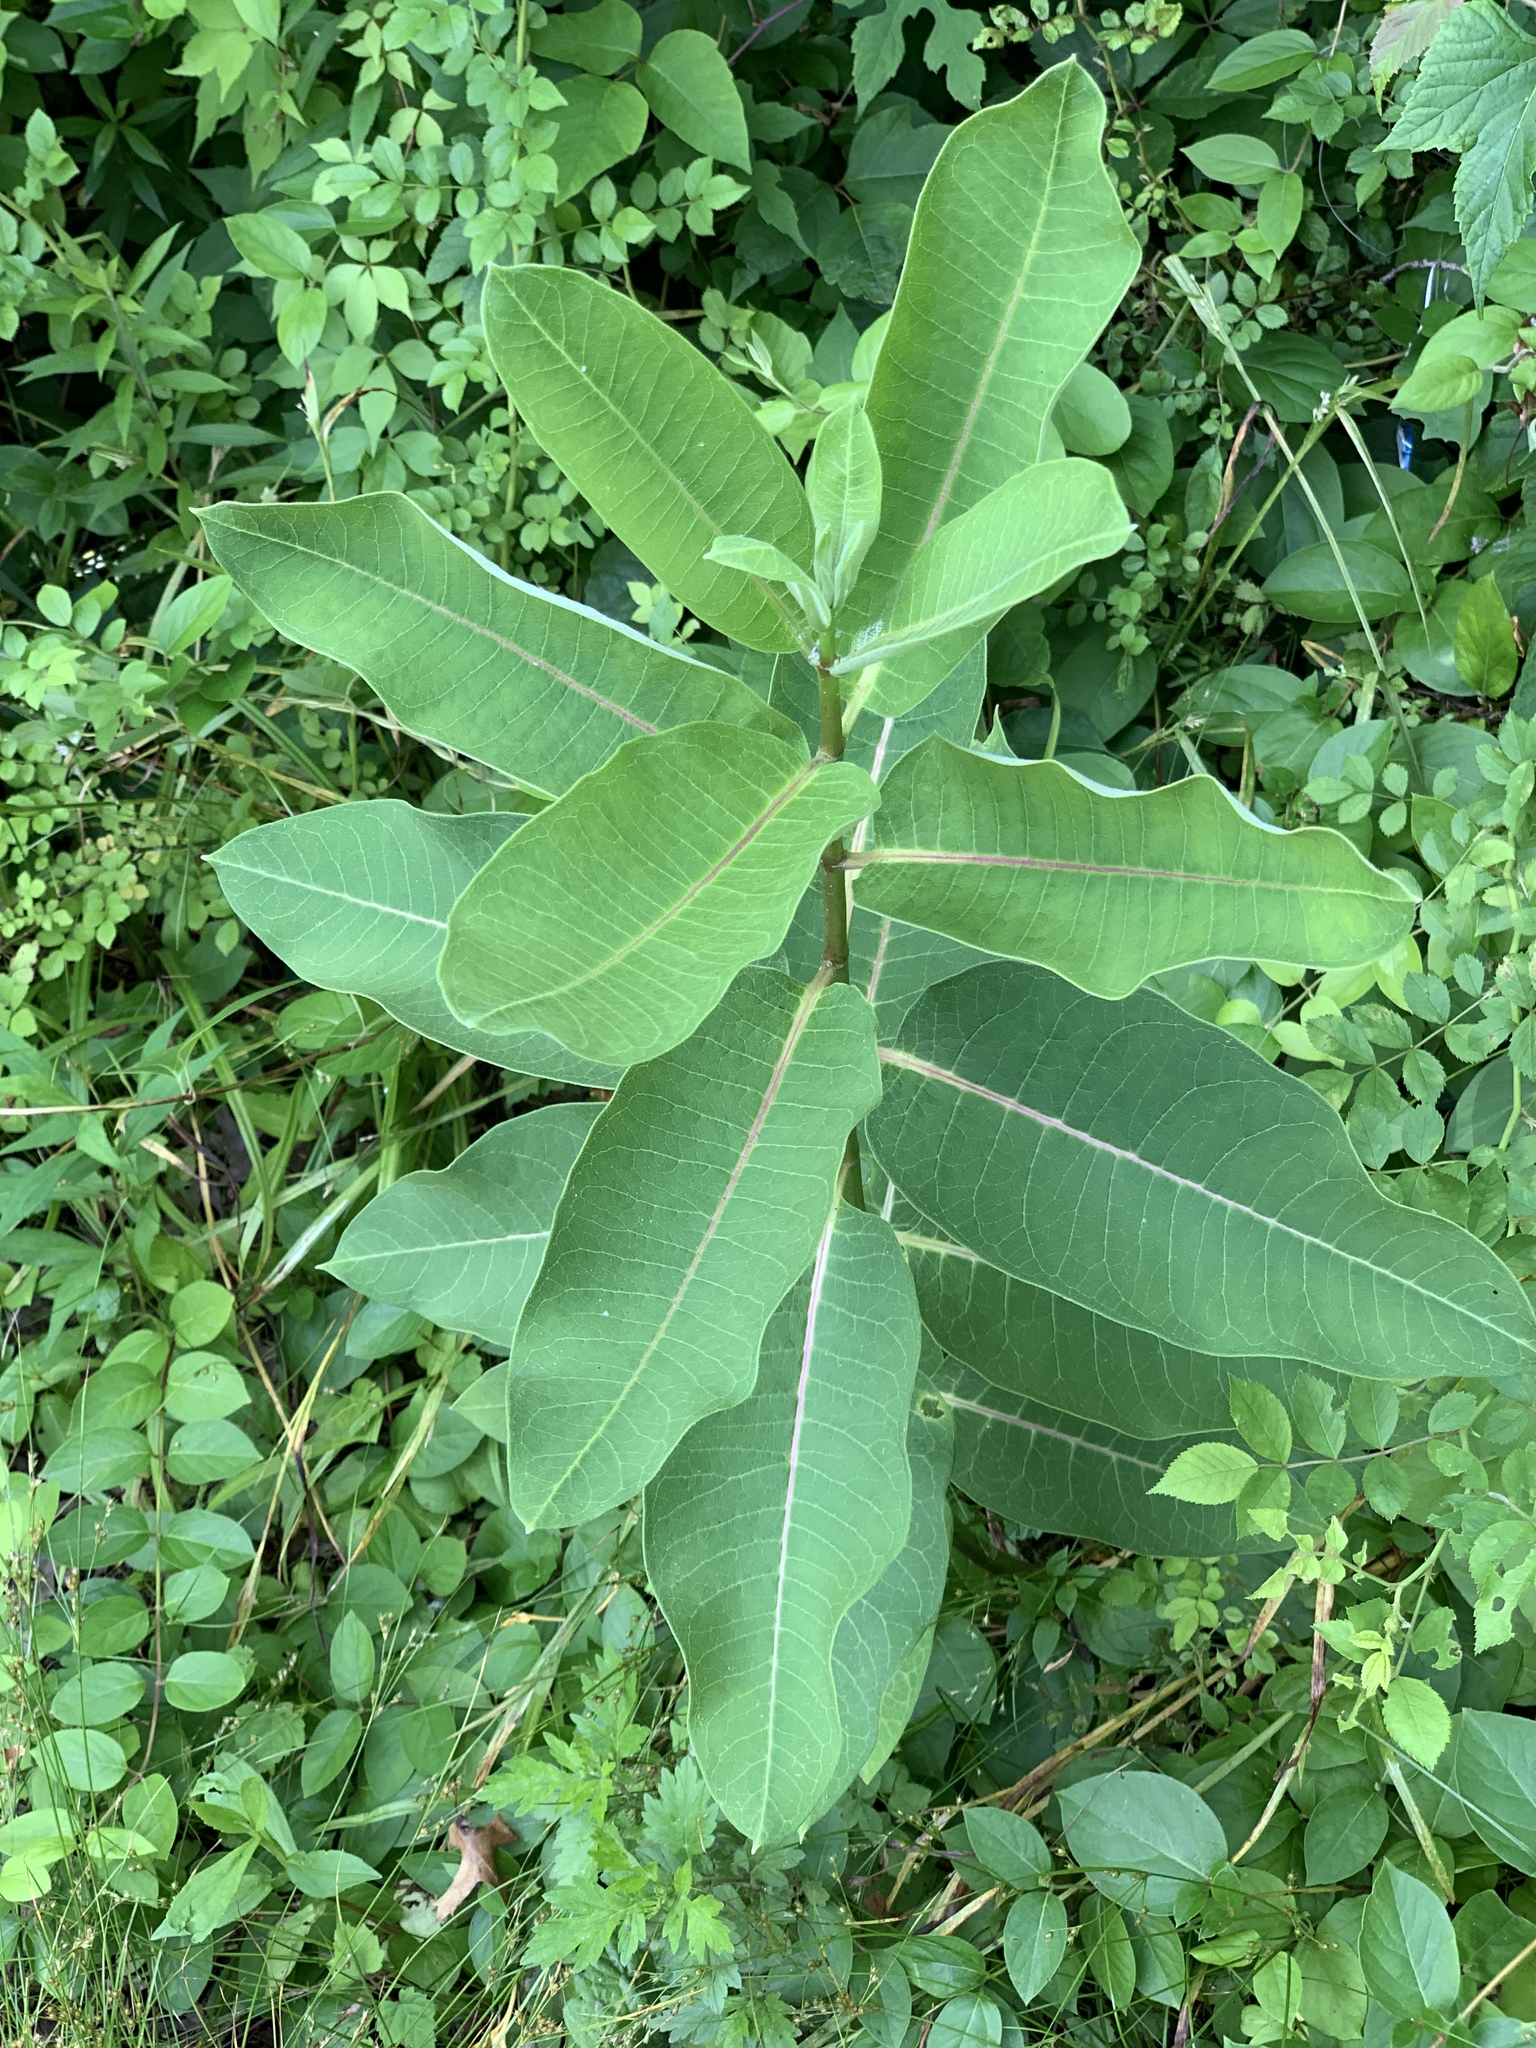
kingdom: Plantae
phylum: Tracheophyta
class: Magnoliopsida
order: Gentianales
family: Apocynaceae
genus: Asclepias
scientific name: Asclepias syriaca
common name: Common milkweed
